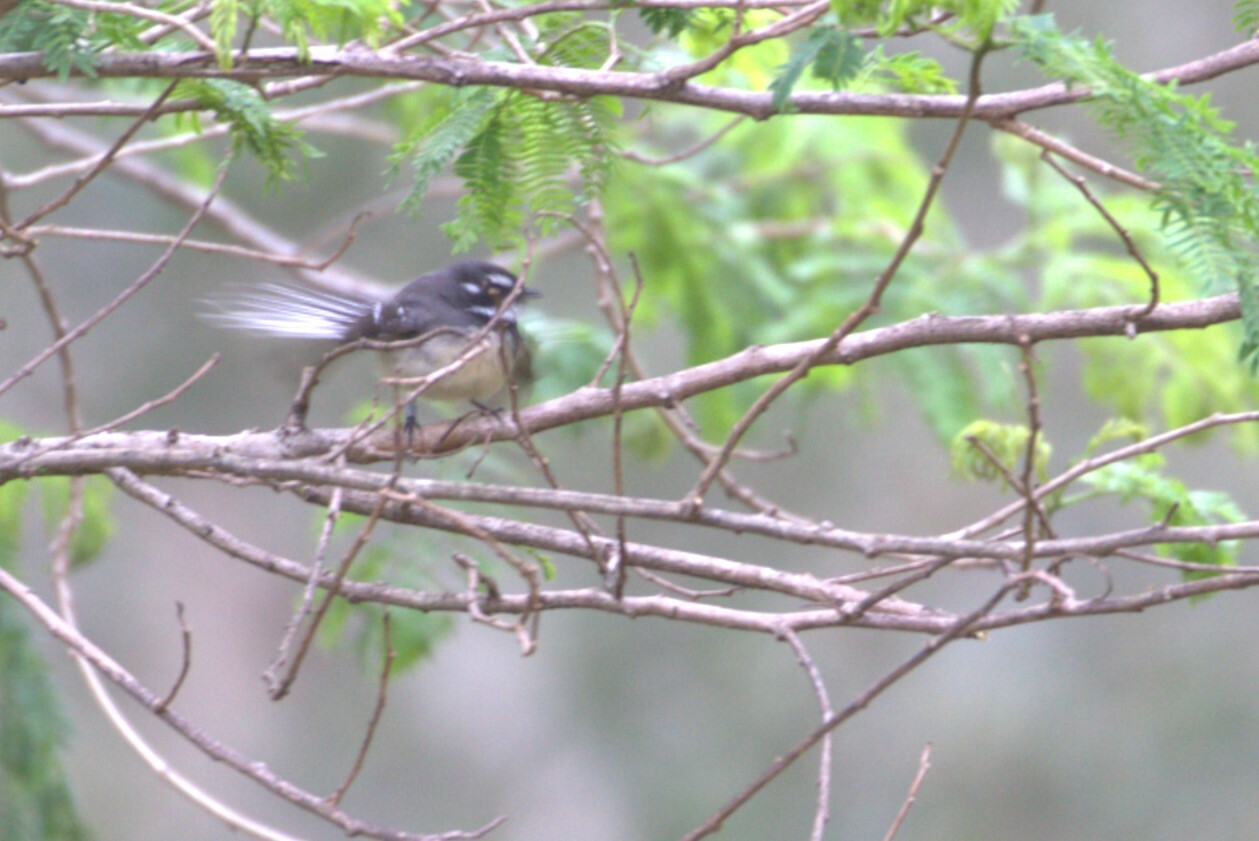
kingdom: Animalia
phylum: Chordata
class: Aves
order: Passeriformes
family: Rhipiduridae
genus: Rhipidura
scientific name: Rhipidura albiscapa
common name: Grey fantail
